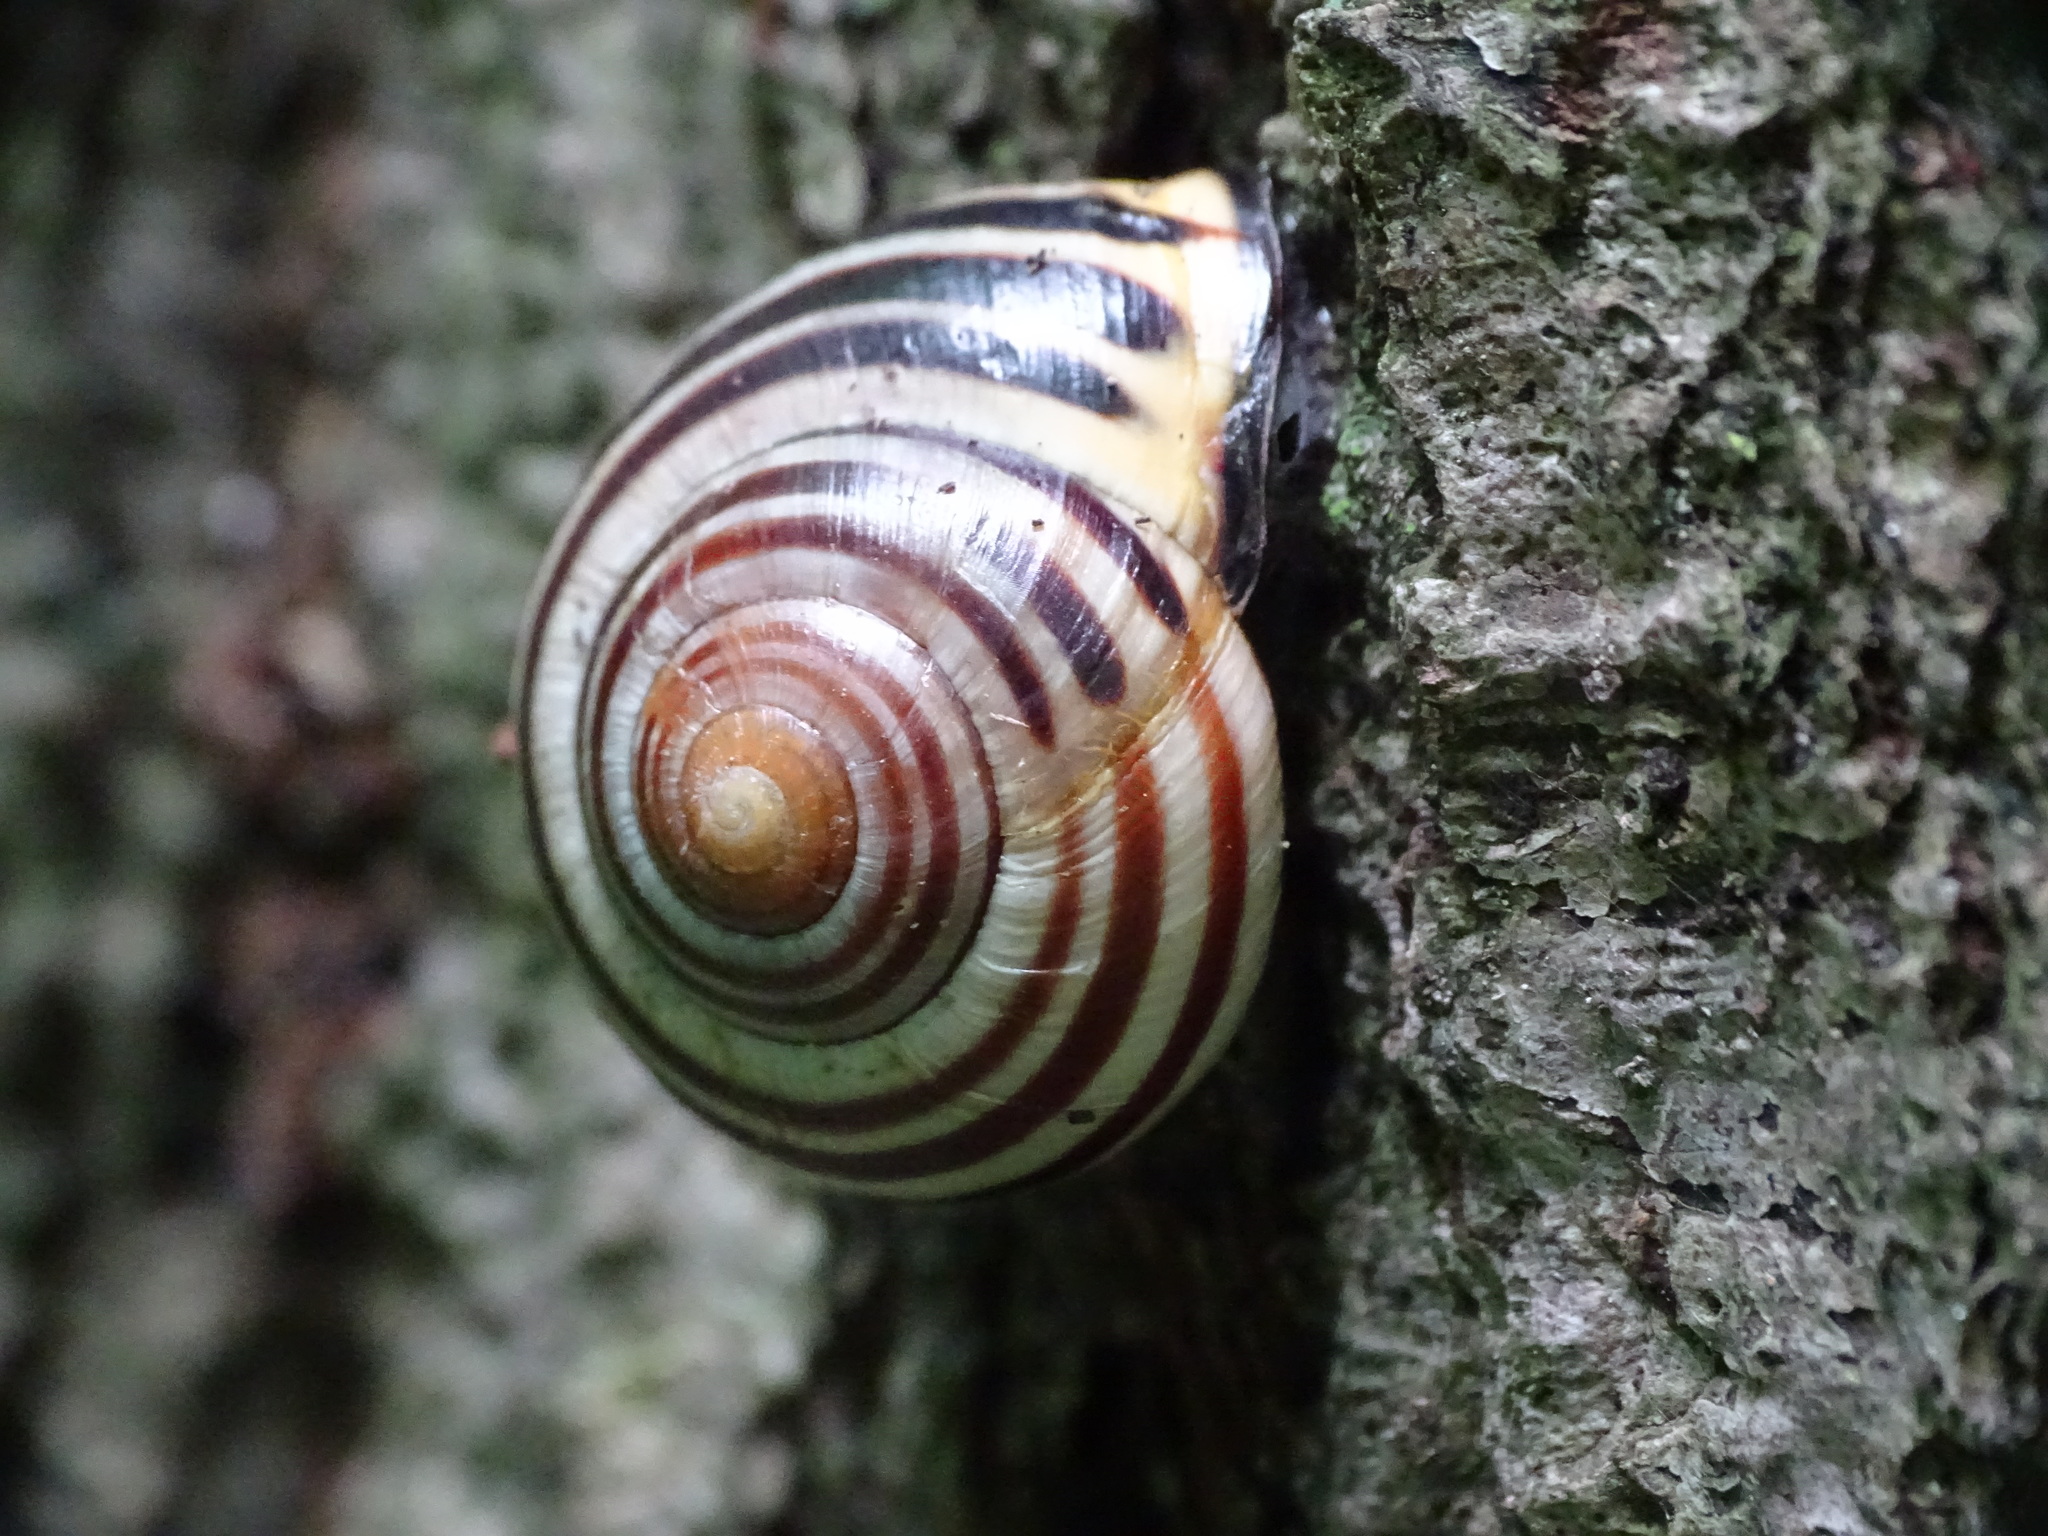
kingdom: Animalia
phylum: Mollusca
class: Gastropoda
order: Stylommatophora
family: Helicidae
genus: Cepaea
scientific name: Cepaea nemoralis
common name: Grovesnail
